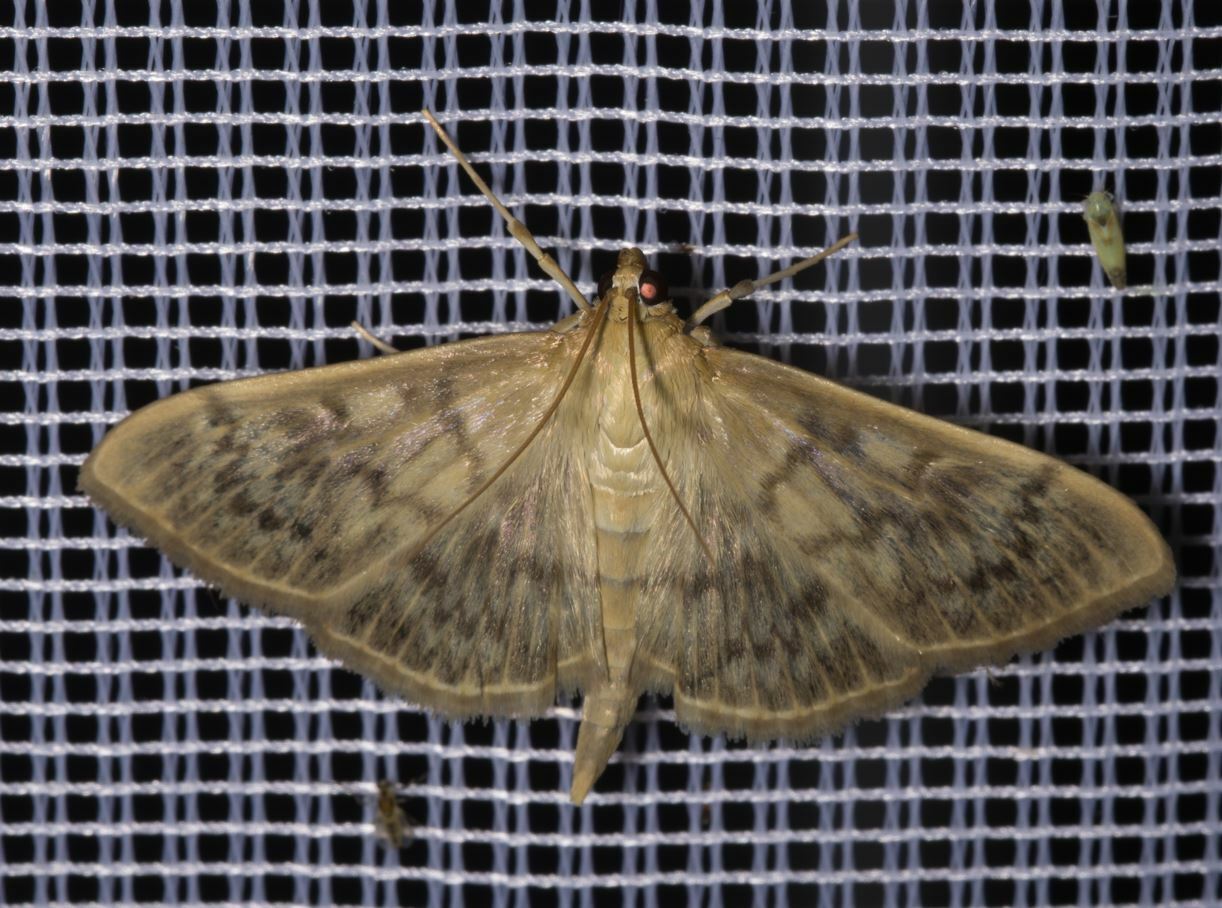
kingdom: Animalia
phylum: Arthropoda
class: Insecta
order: Lepidoptera
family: Crambidae
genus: Patania
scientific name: Patania ruralis
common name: Mother of pearl
